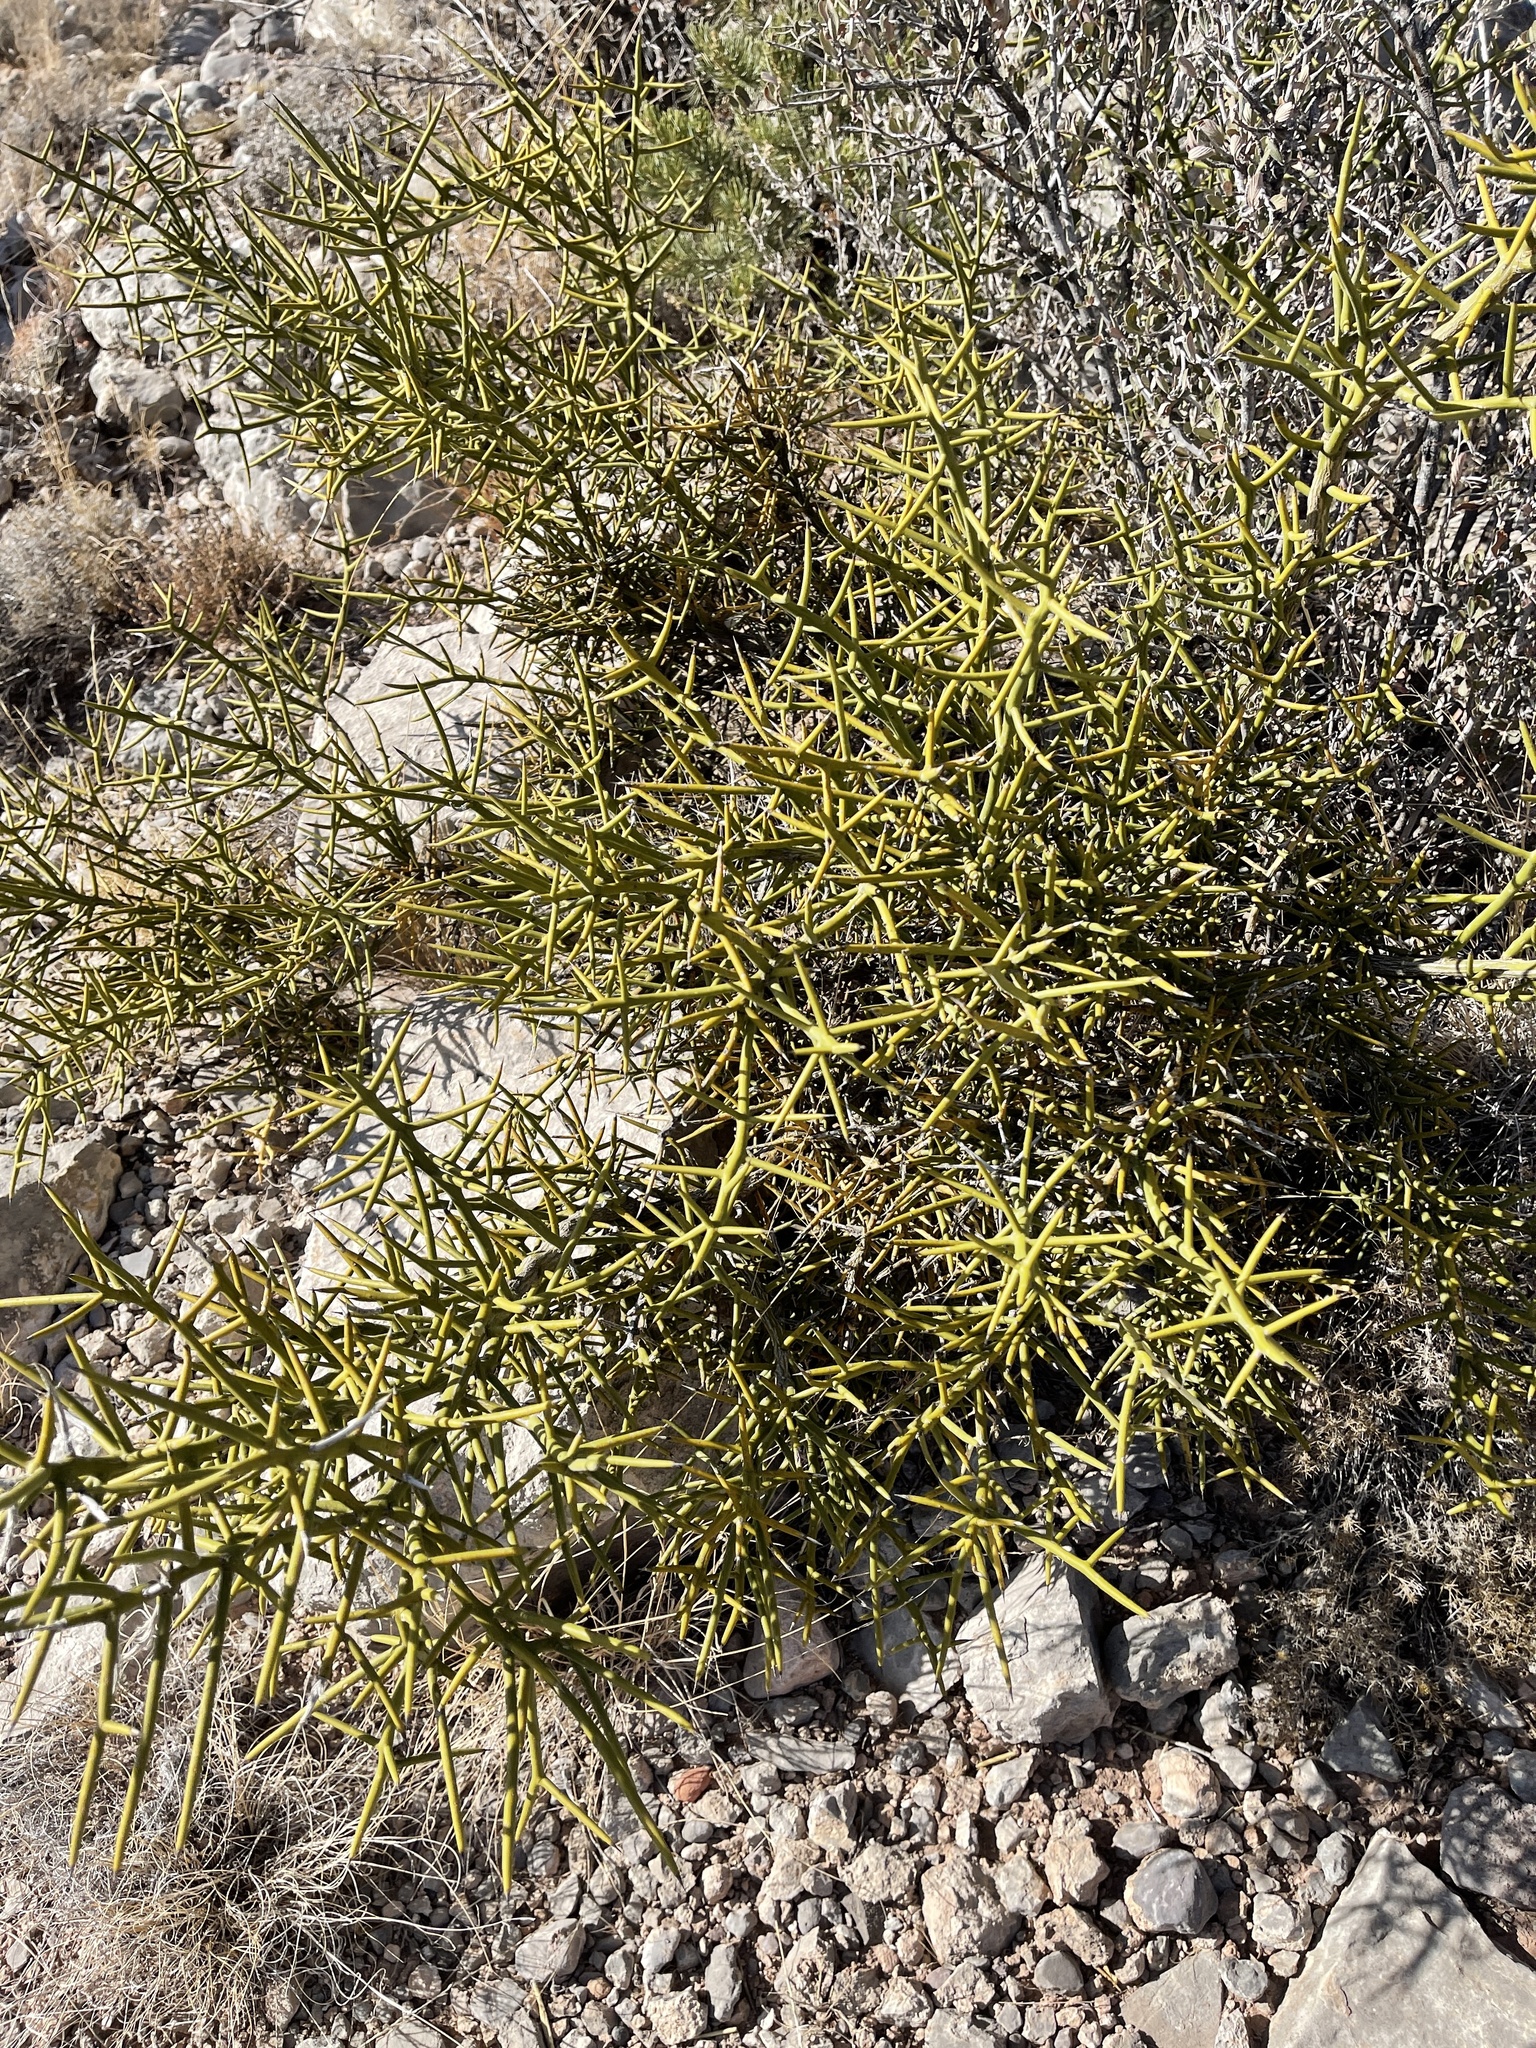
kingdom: Plantae
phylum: Tracheophyta
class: Magnoliopsida
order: Brassicales
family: Koeberliniaceae
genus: Koeberlinia
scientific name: Koeberlinia spinosa
